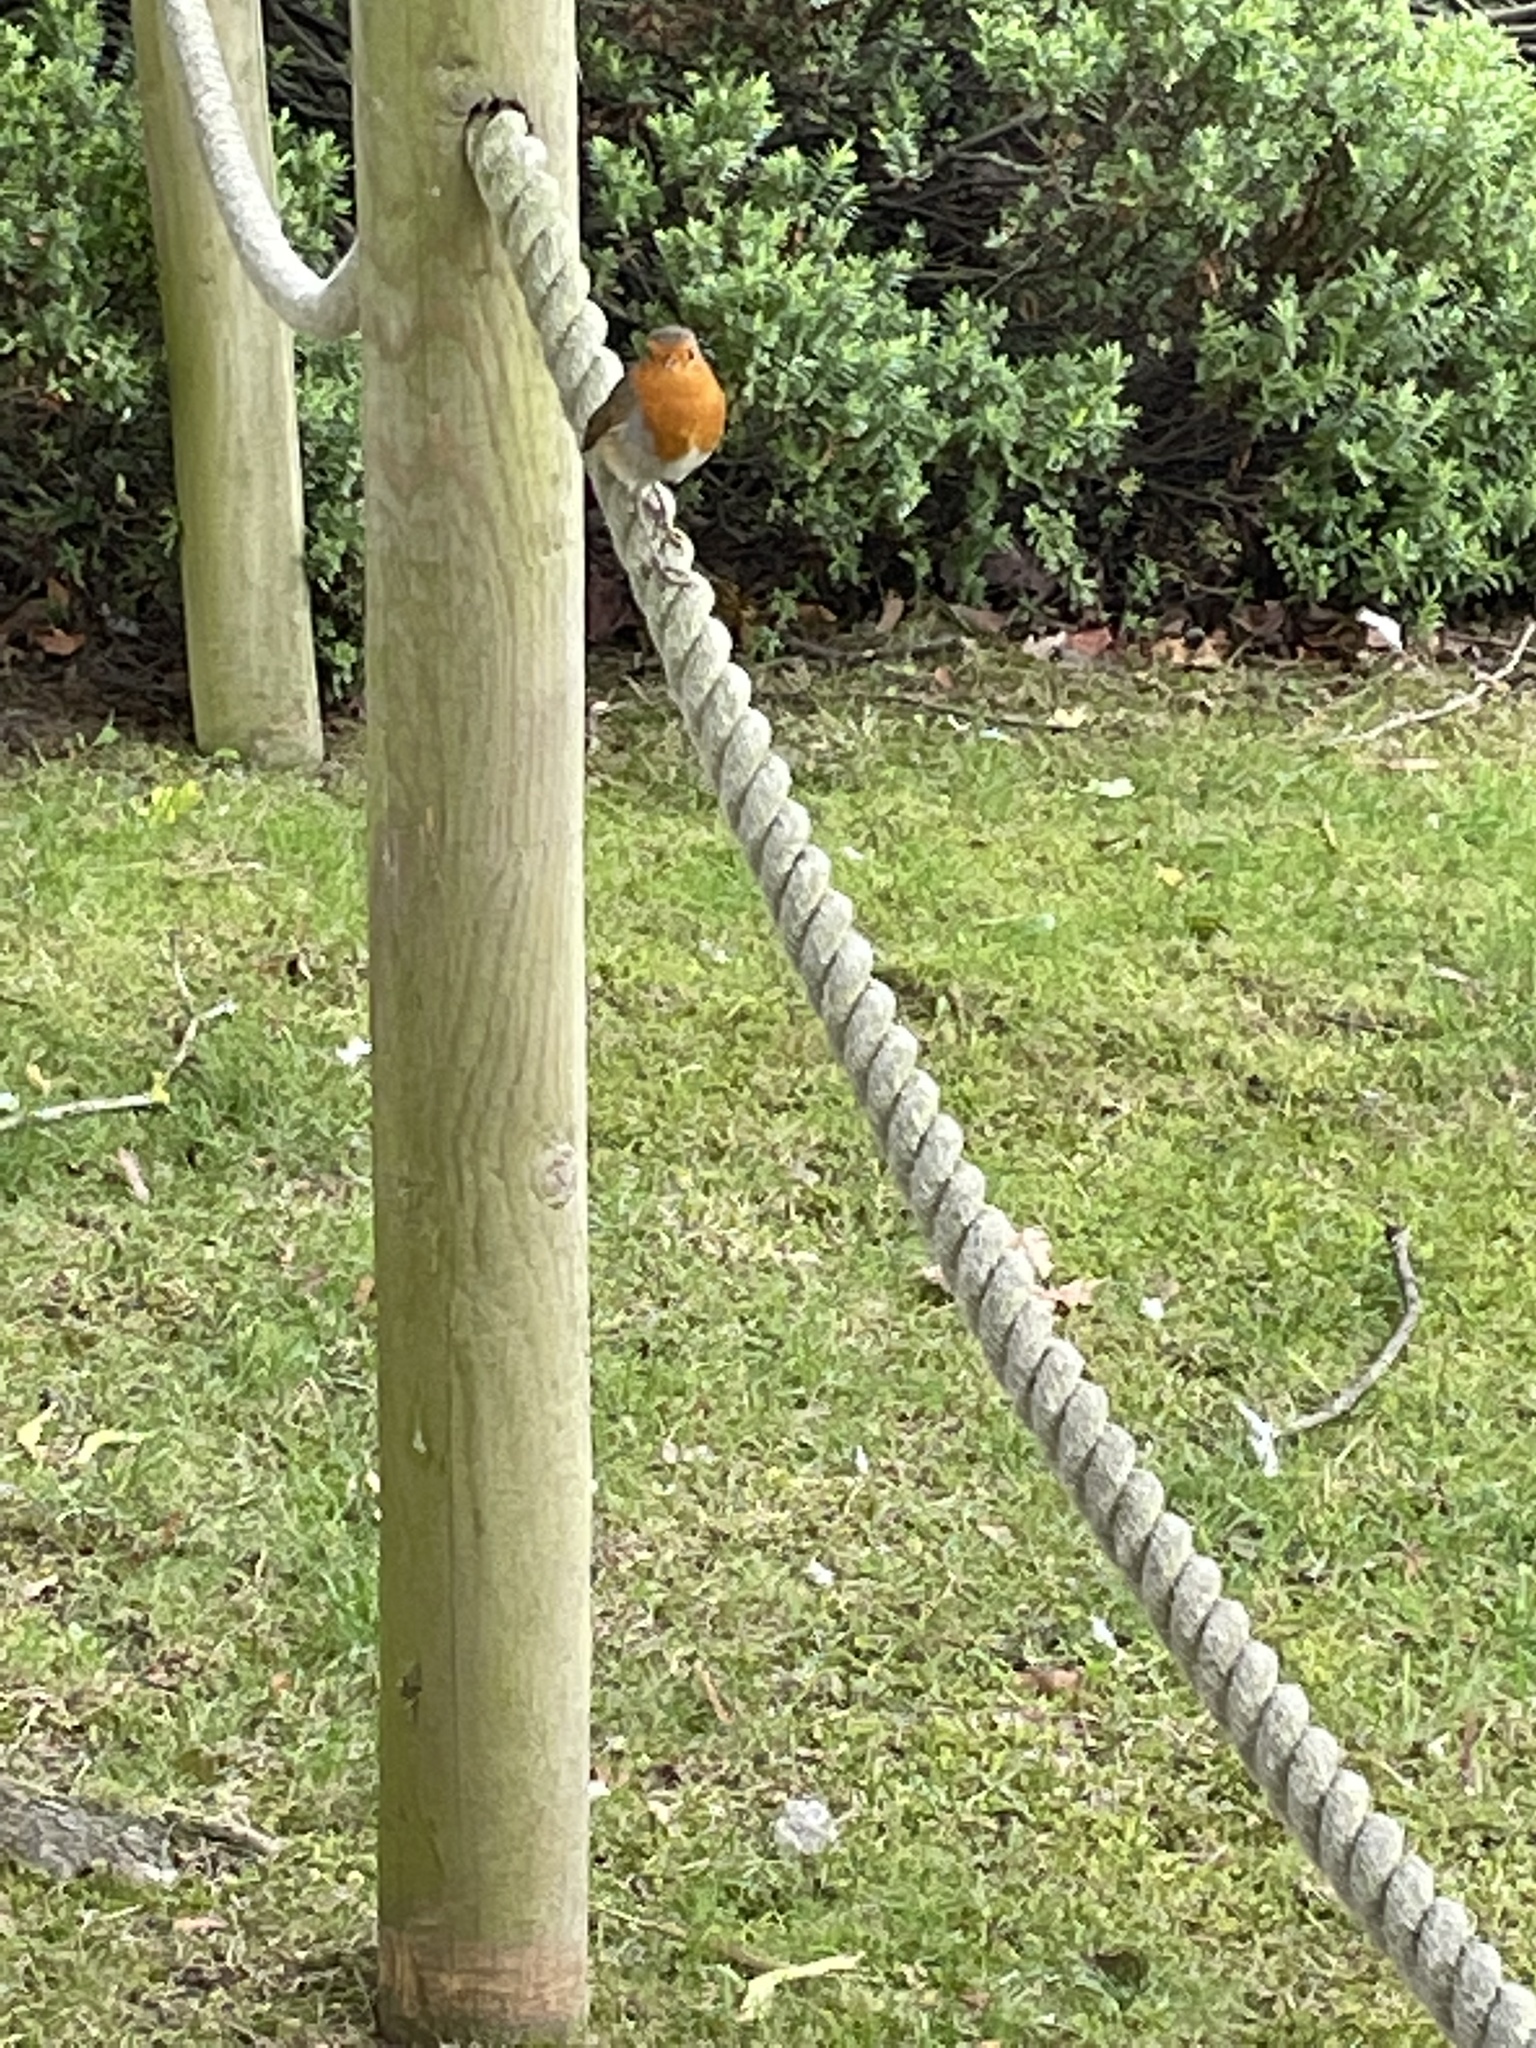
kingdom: Animalia
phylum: Chordata
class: Aves
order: Passeriformes
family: Muscicapidae
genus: Erithacus
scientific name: Erithacus rubecula
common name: European robin
